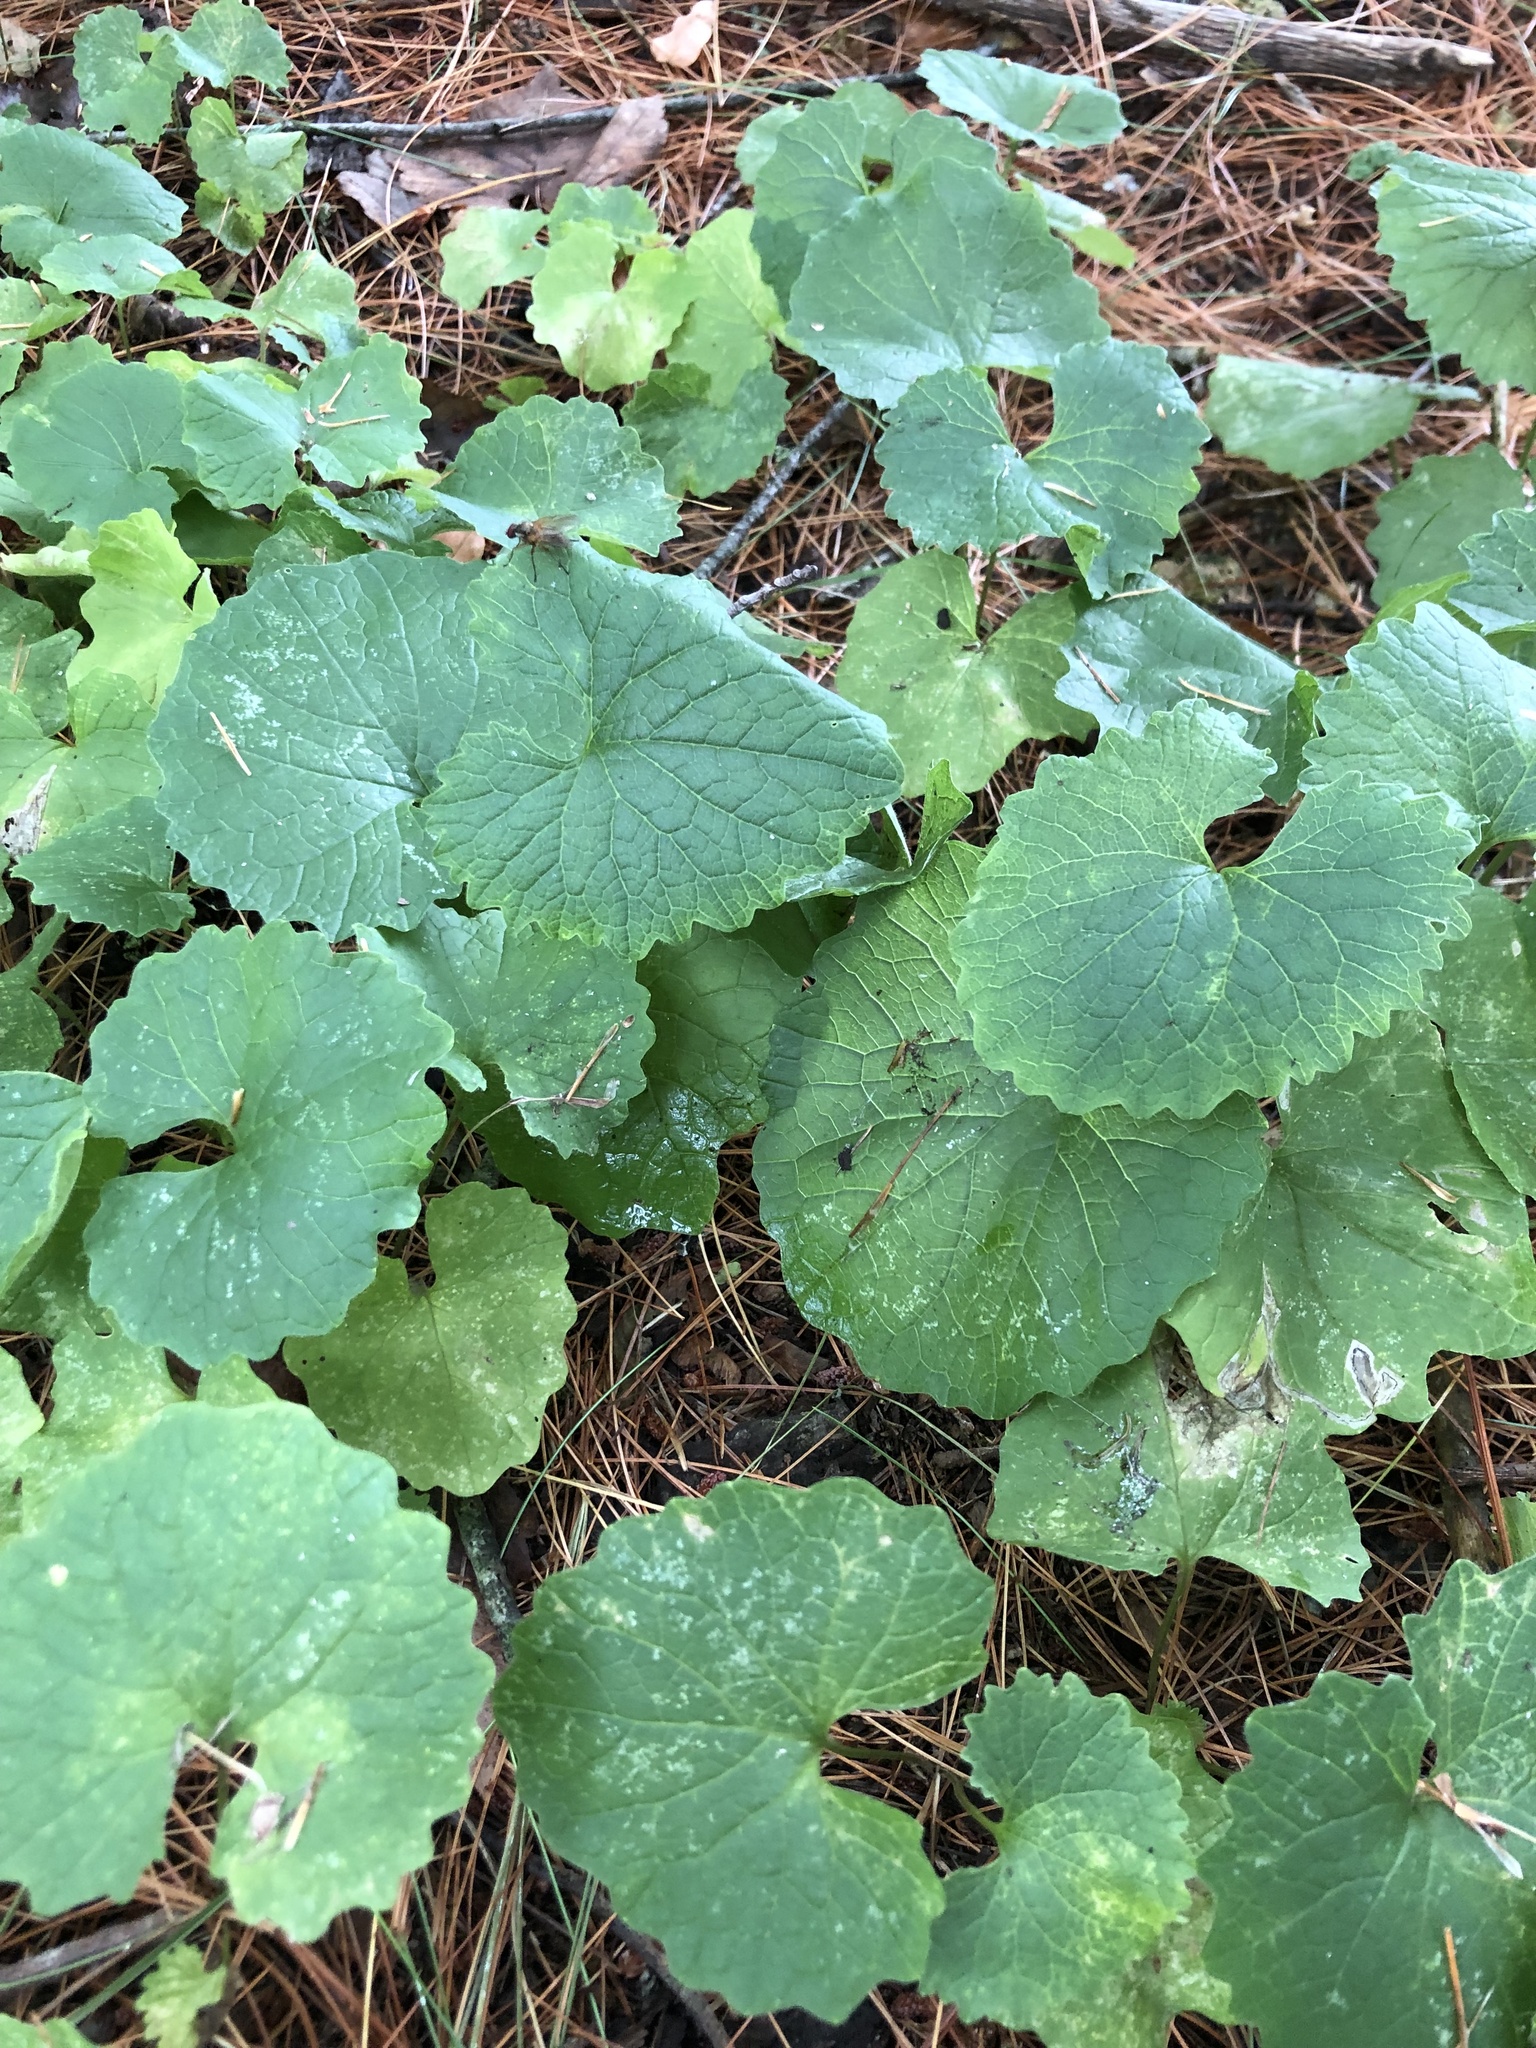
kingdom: Plantae
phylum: Tracheophyta
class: Magnoliopsida
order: Brassicales
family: Brassicaceae
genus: Alliaria
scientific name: Alliaria petiolata
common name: Garlic mustard
